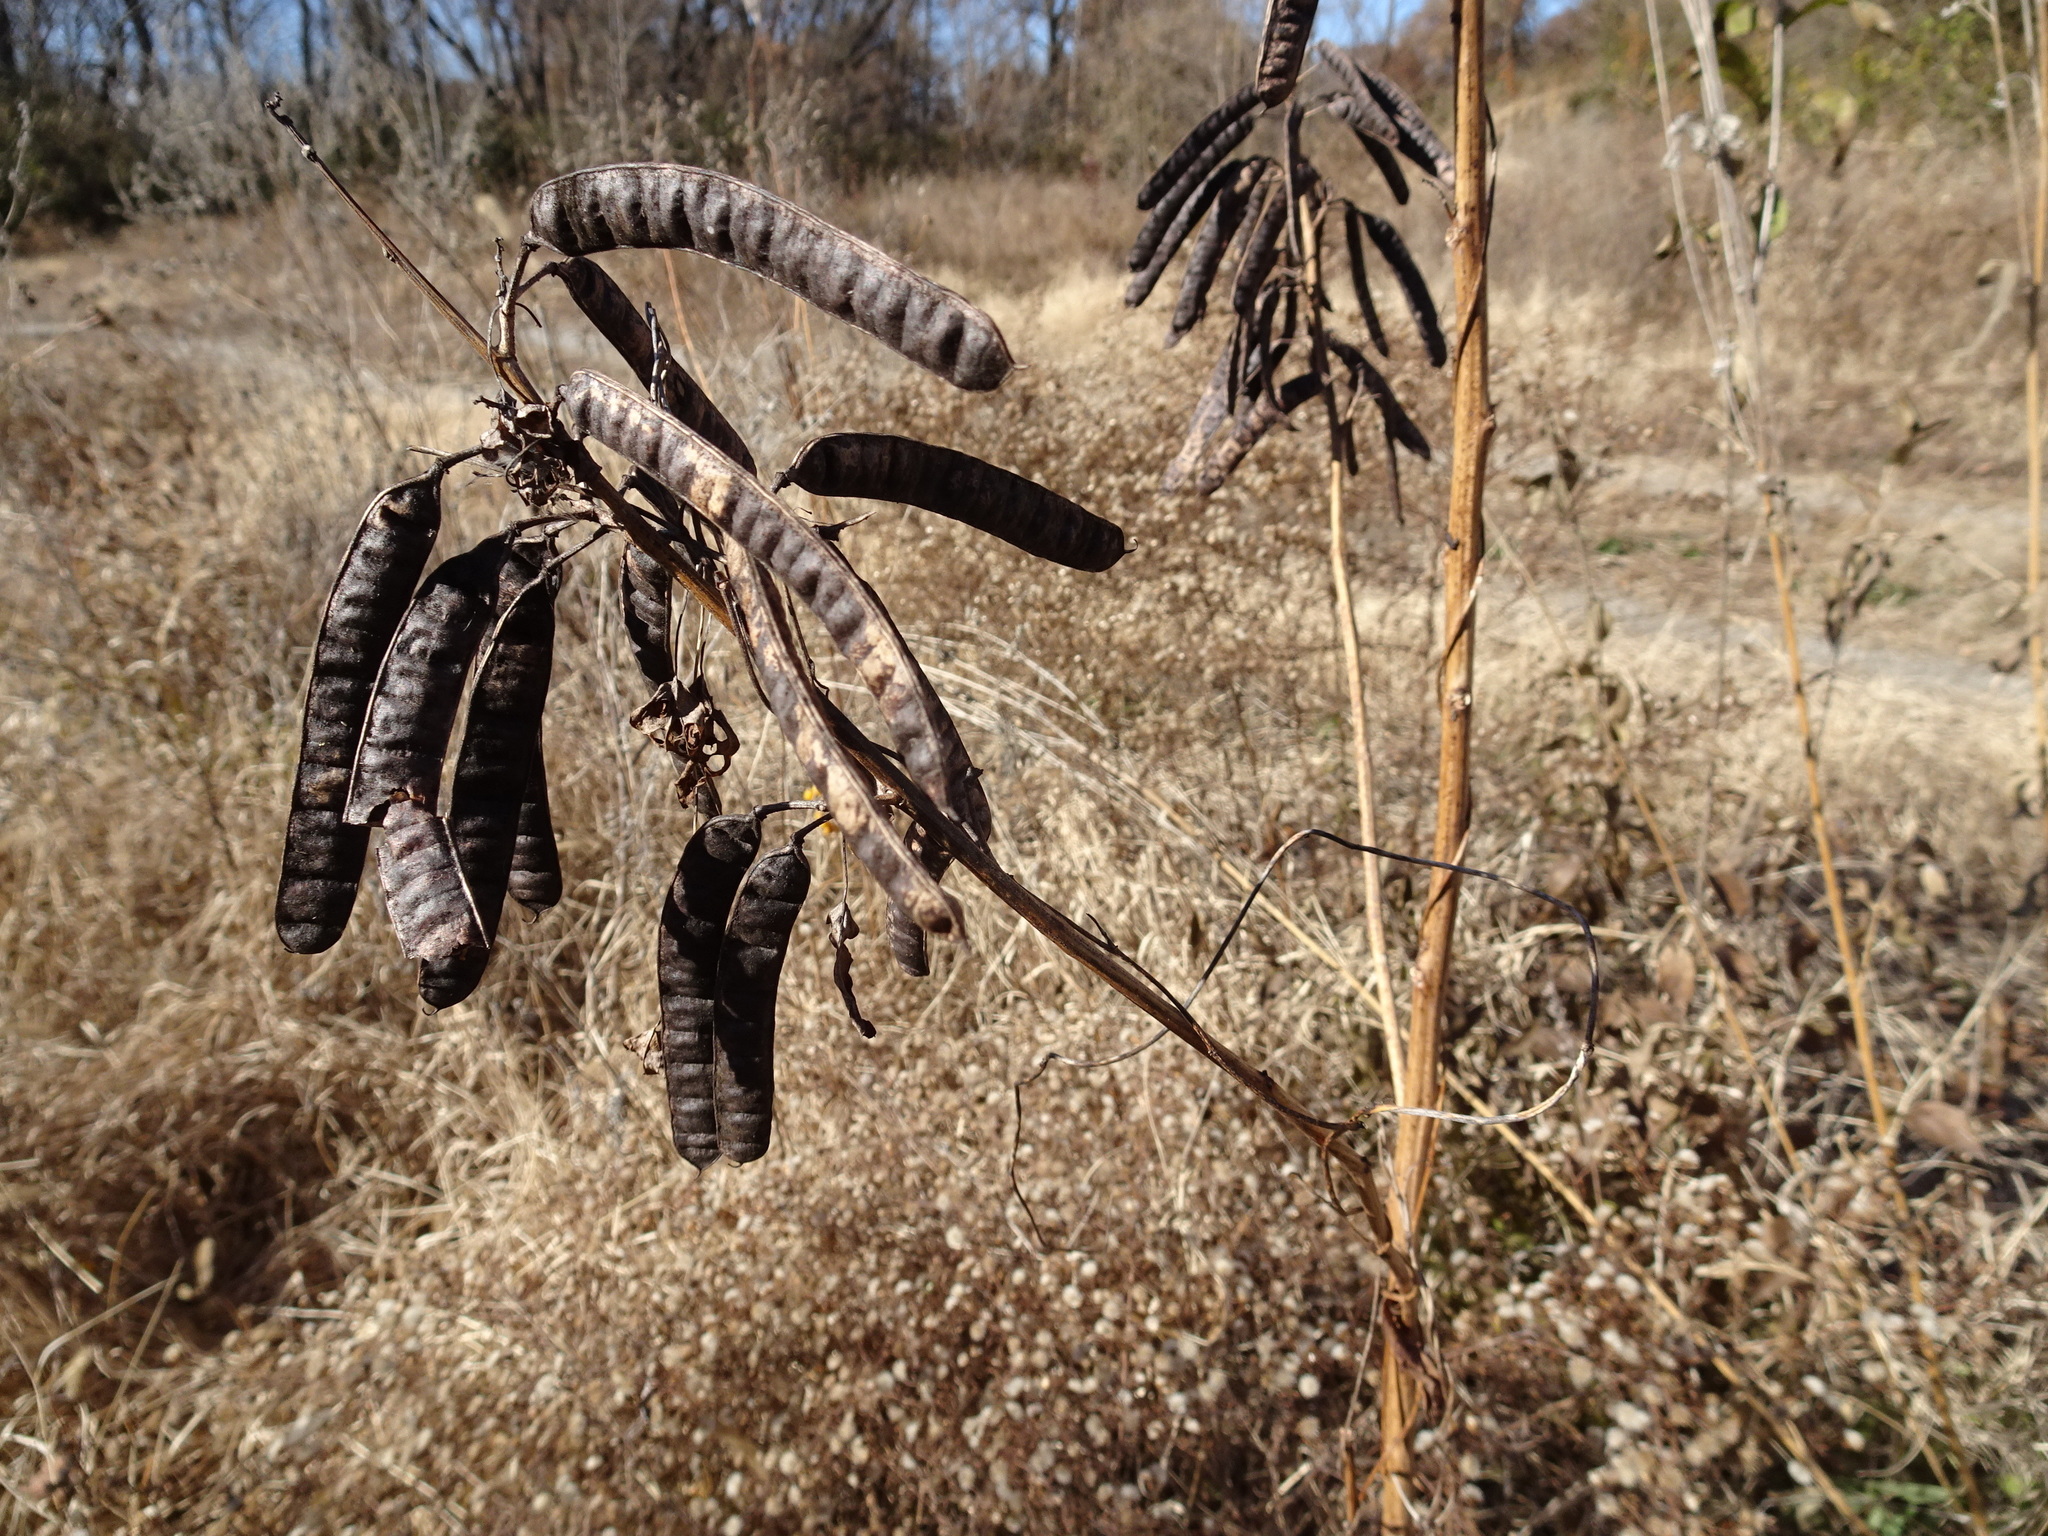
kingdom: Plantae
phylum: Tracheophyta
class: Magnoliopsida
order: Fabales
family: Fabaceae
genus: Senna
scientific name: Senna marilandica
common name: American senna
